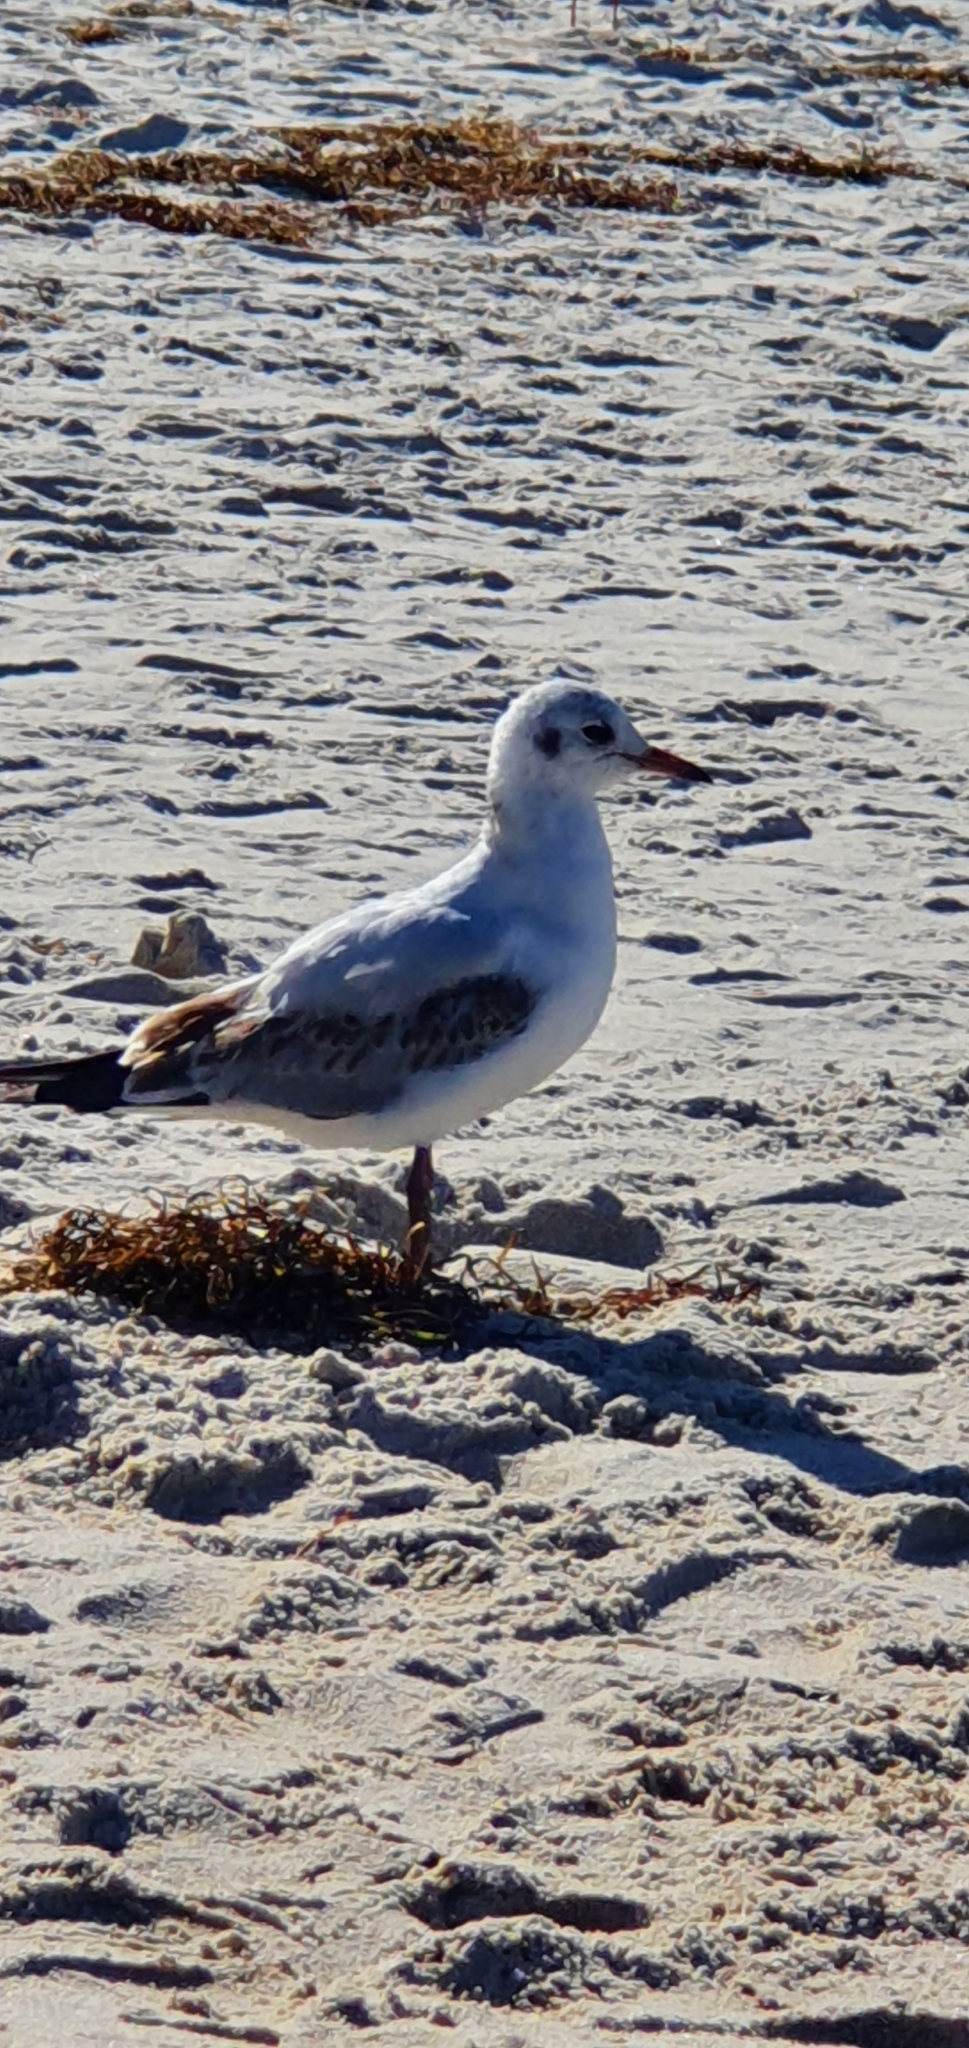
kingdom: Animalia
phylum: Chordata
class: Aves
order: Charadriiformes
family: Laridae
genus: Chroicocephalus
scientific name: Chroicocephalus ridibundus
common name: Black-headed gull
